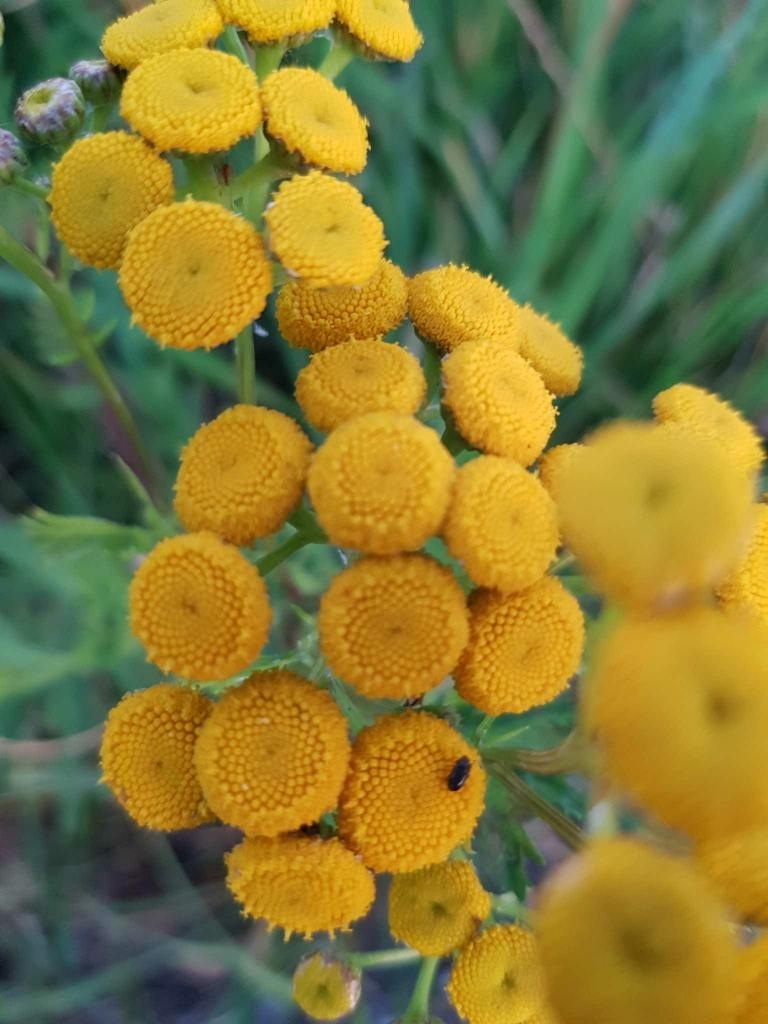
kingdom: Plantae
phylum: Tracheophyta
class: Magnoliopsida
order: Asterales
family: Asteraceae
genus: Tanacetum
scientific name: Tanacetum vulgare
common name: Common tansy
